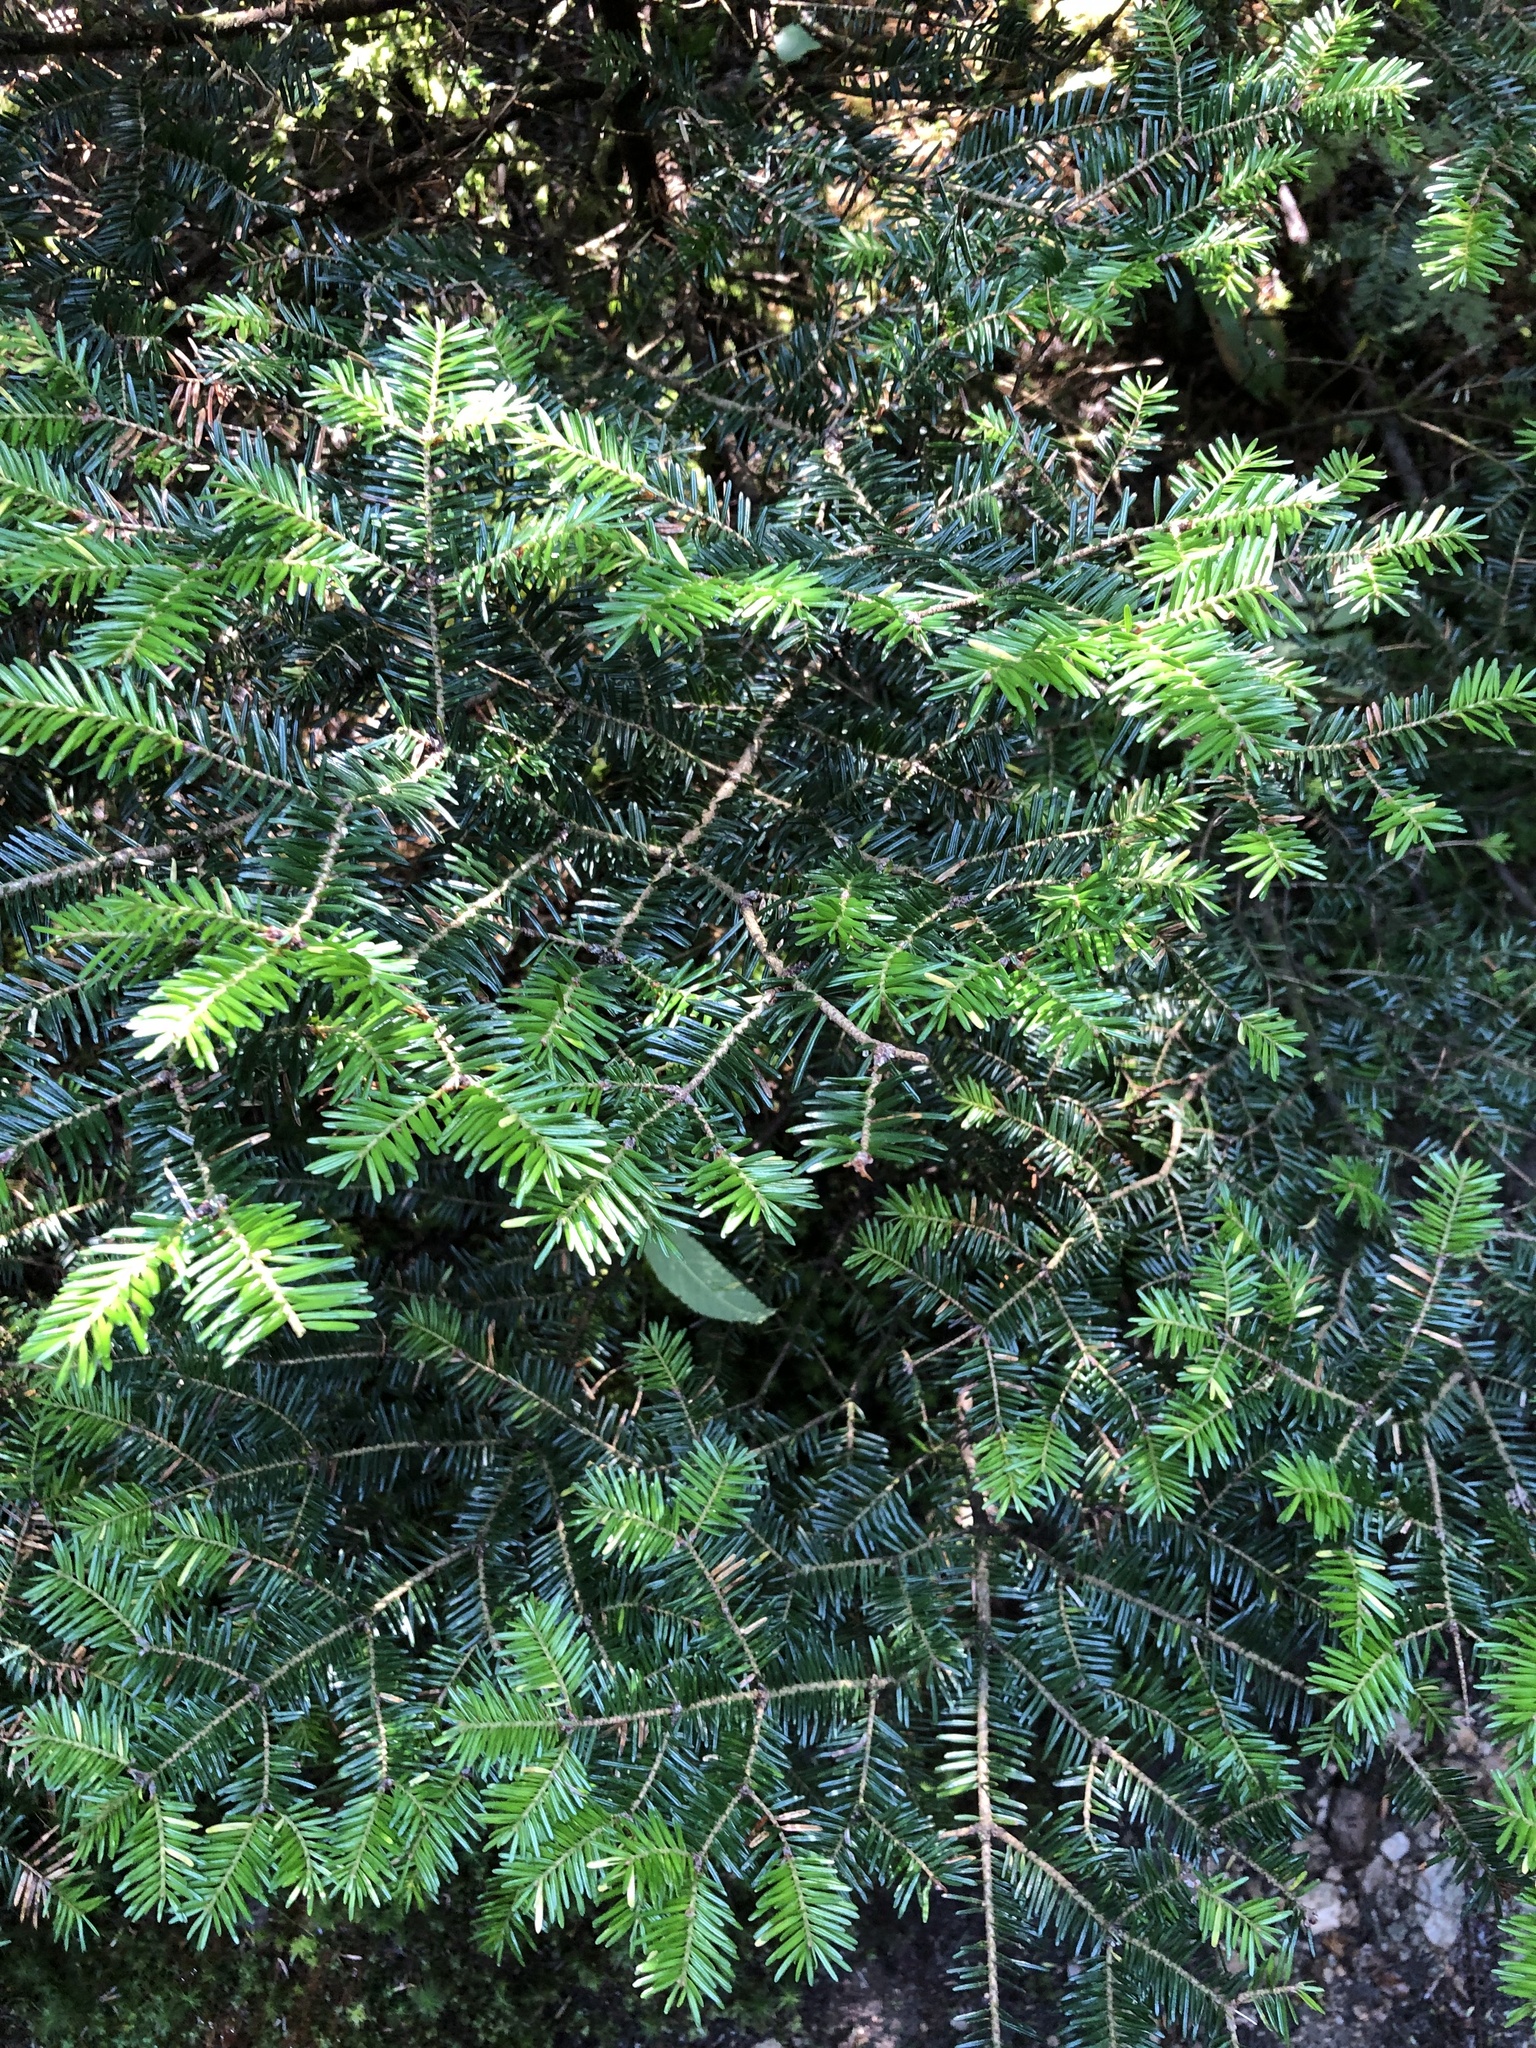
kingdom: Plantae
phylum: Tracheophyta
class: Pinopsida
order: Pinales
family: Pinaceae
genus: Abies
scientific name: Abies balsamea
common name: Balsam fir
